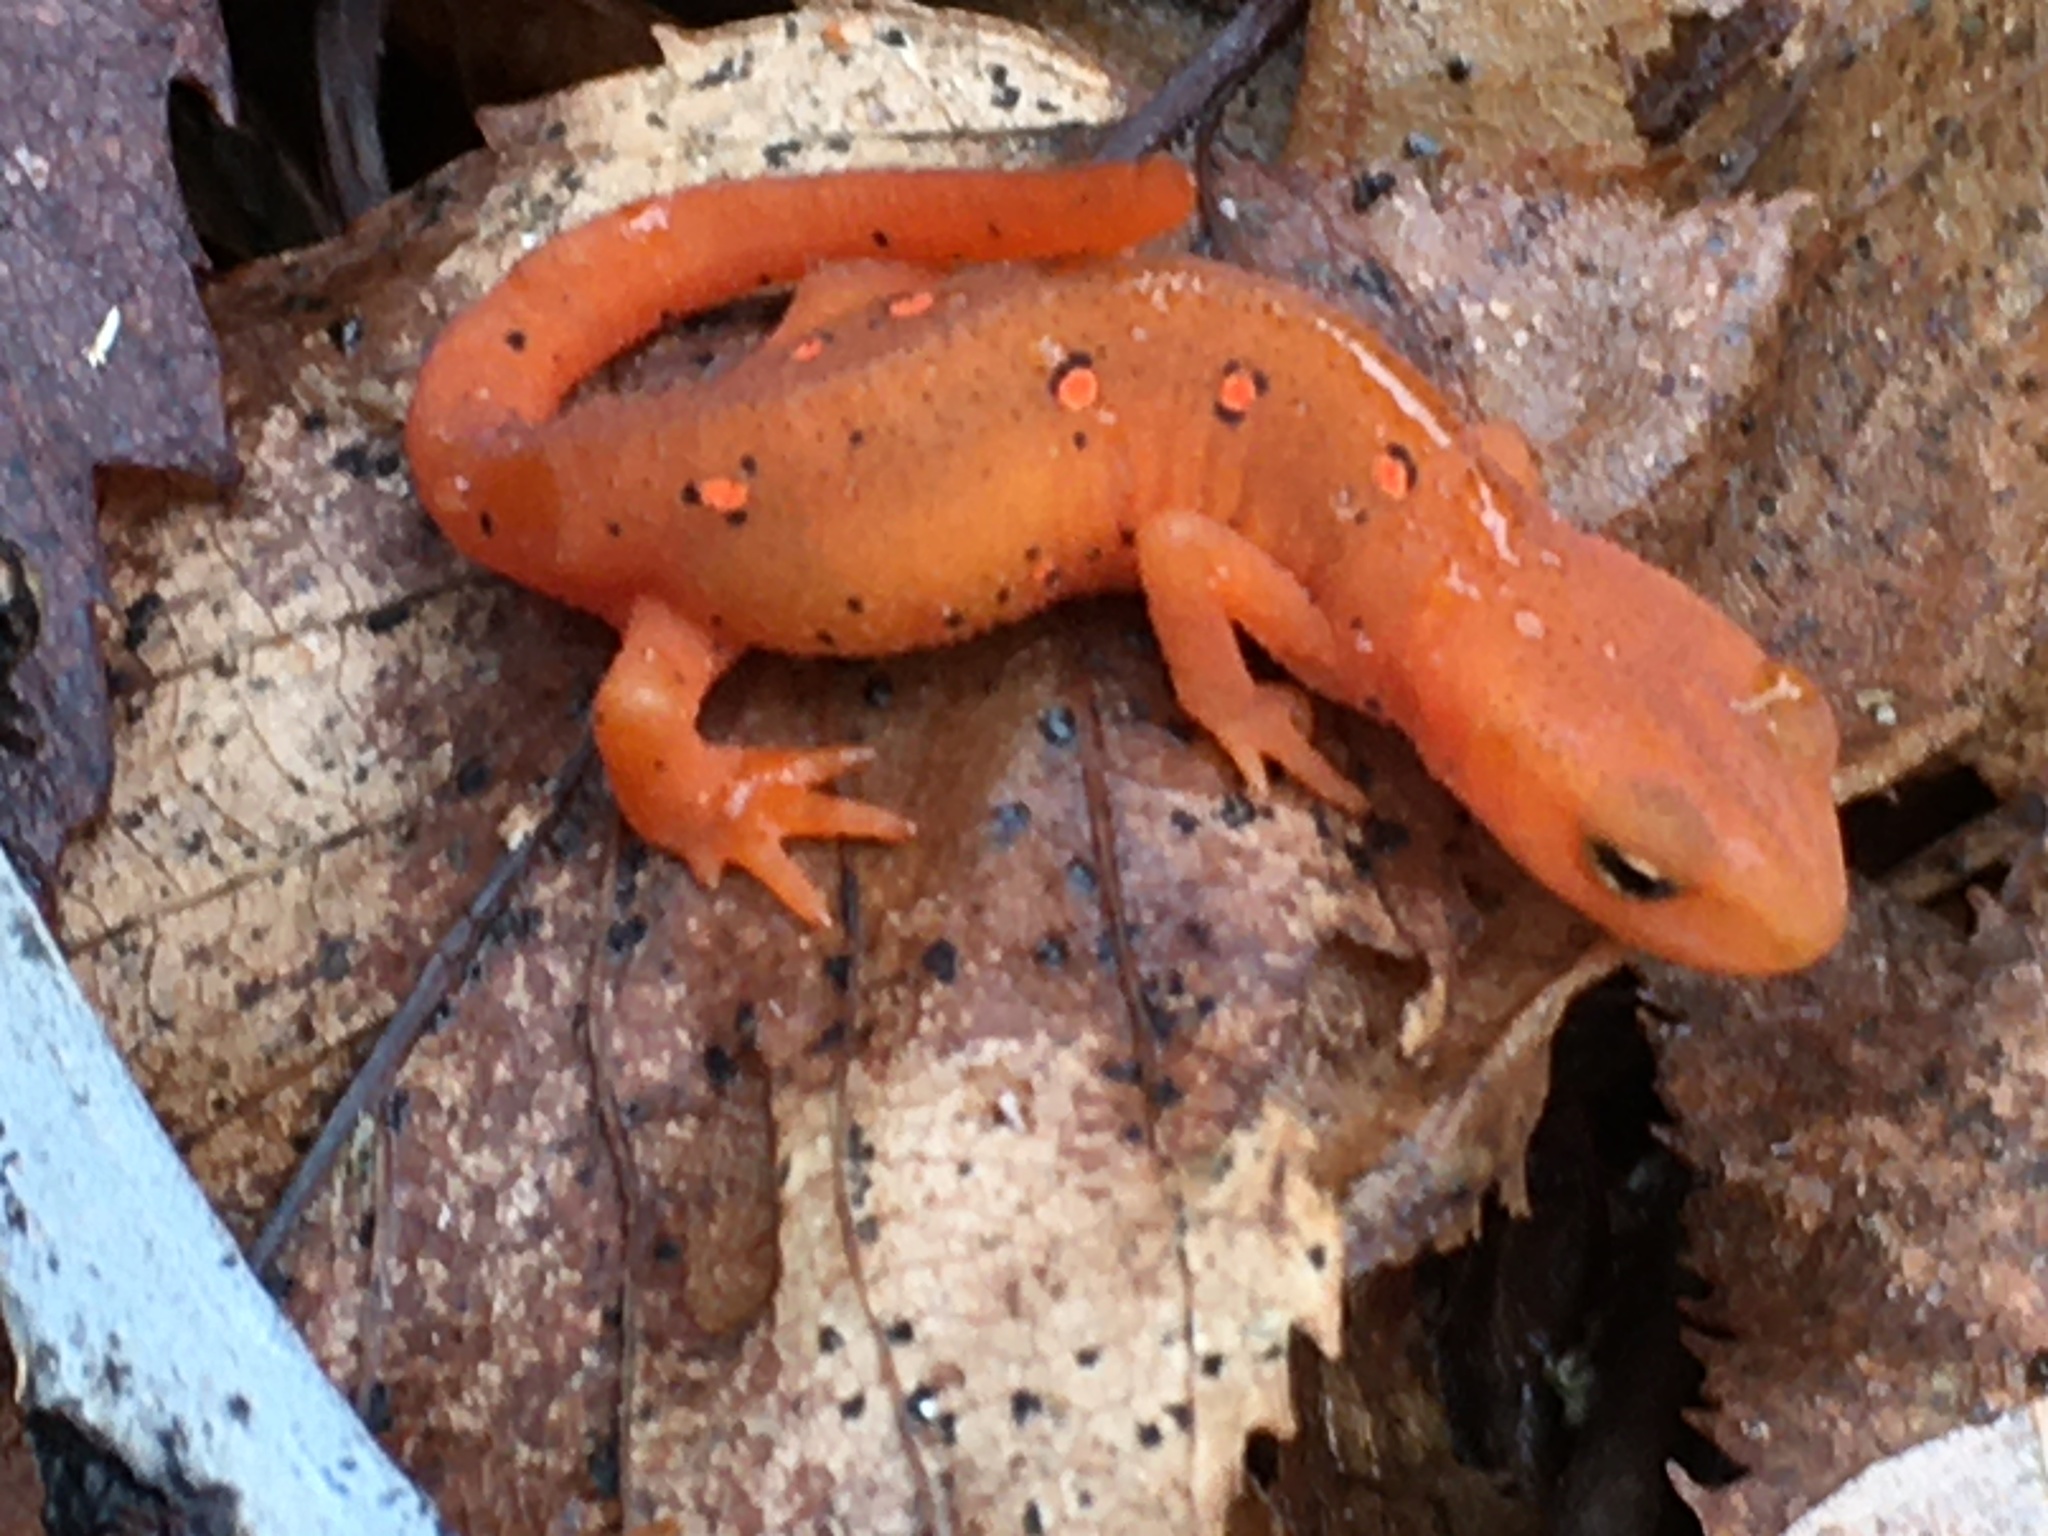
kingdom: Animalia
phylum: Chordata
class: Amphibia
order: Caudata
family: Salamandridae
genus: Notophthalmus
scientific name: Notophthalmus viridescens
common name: Eastern newt
